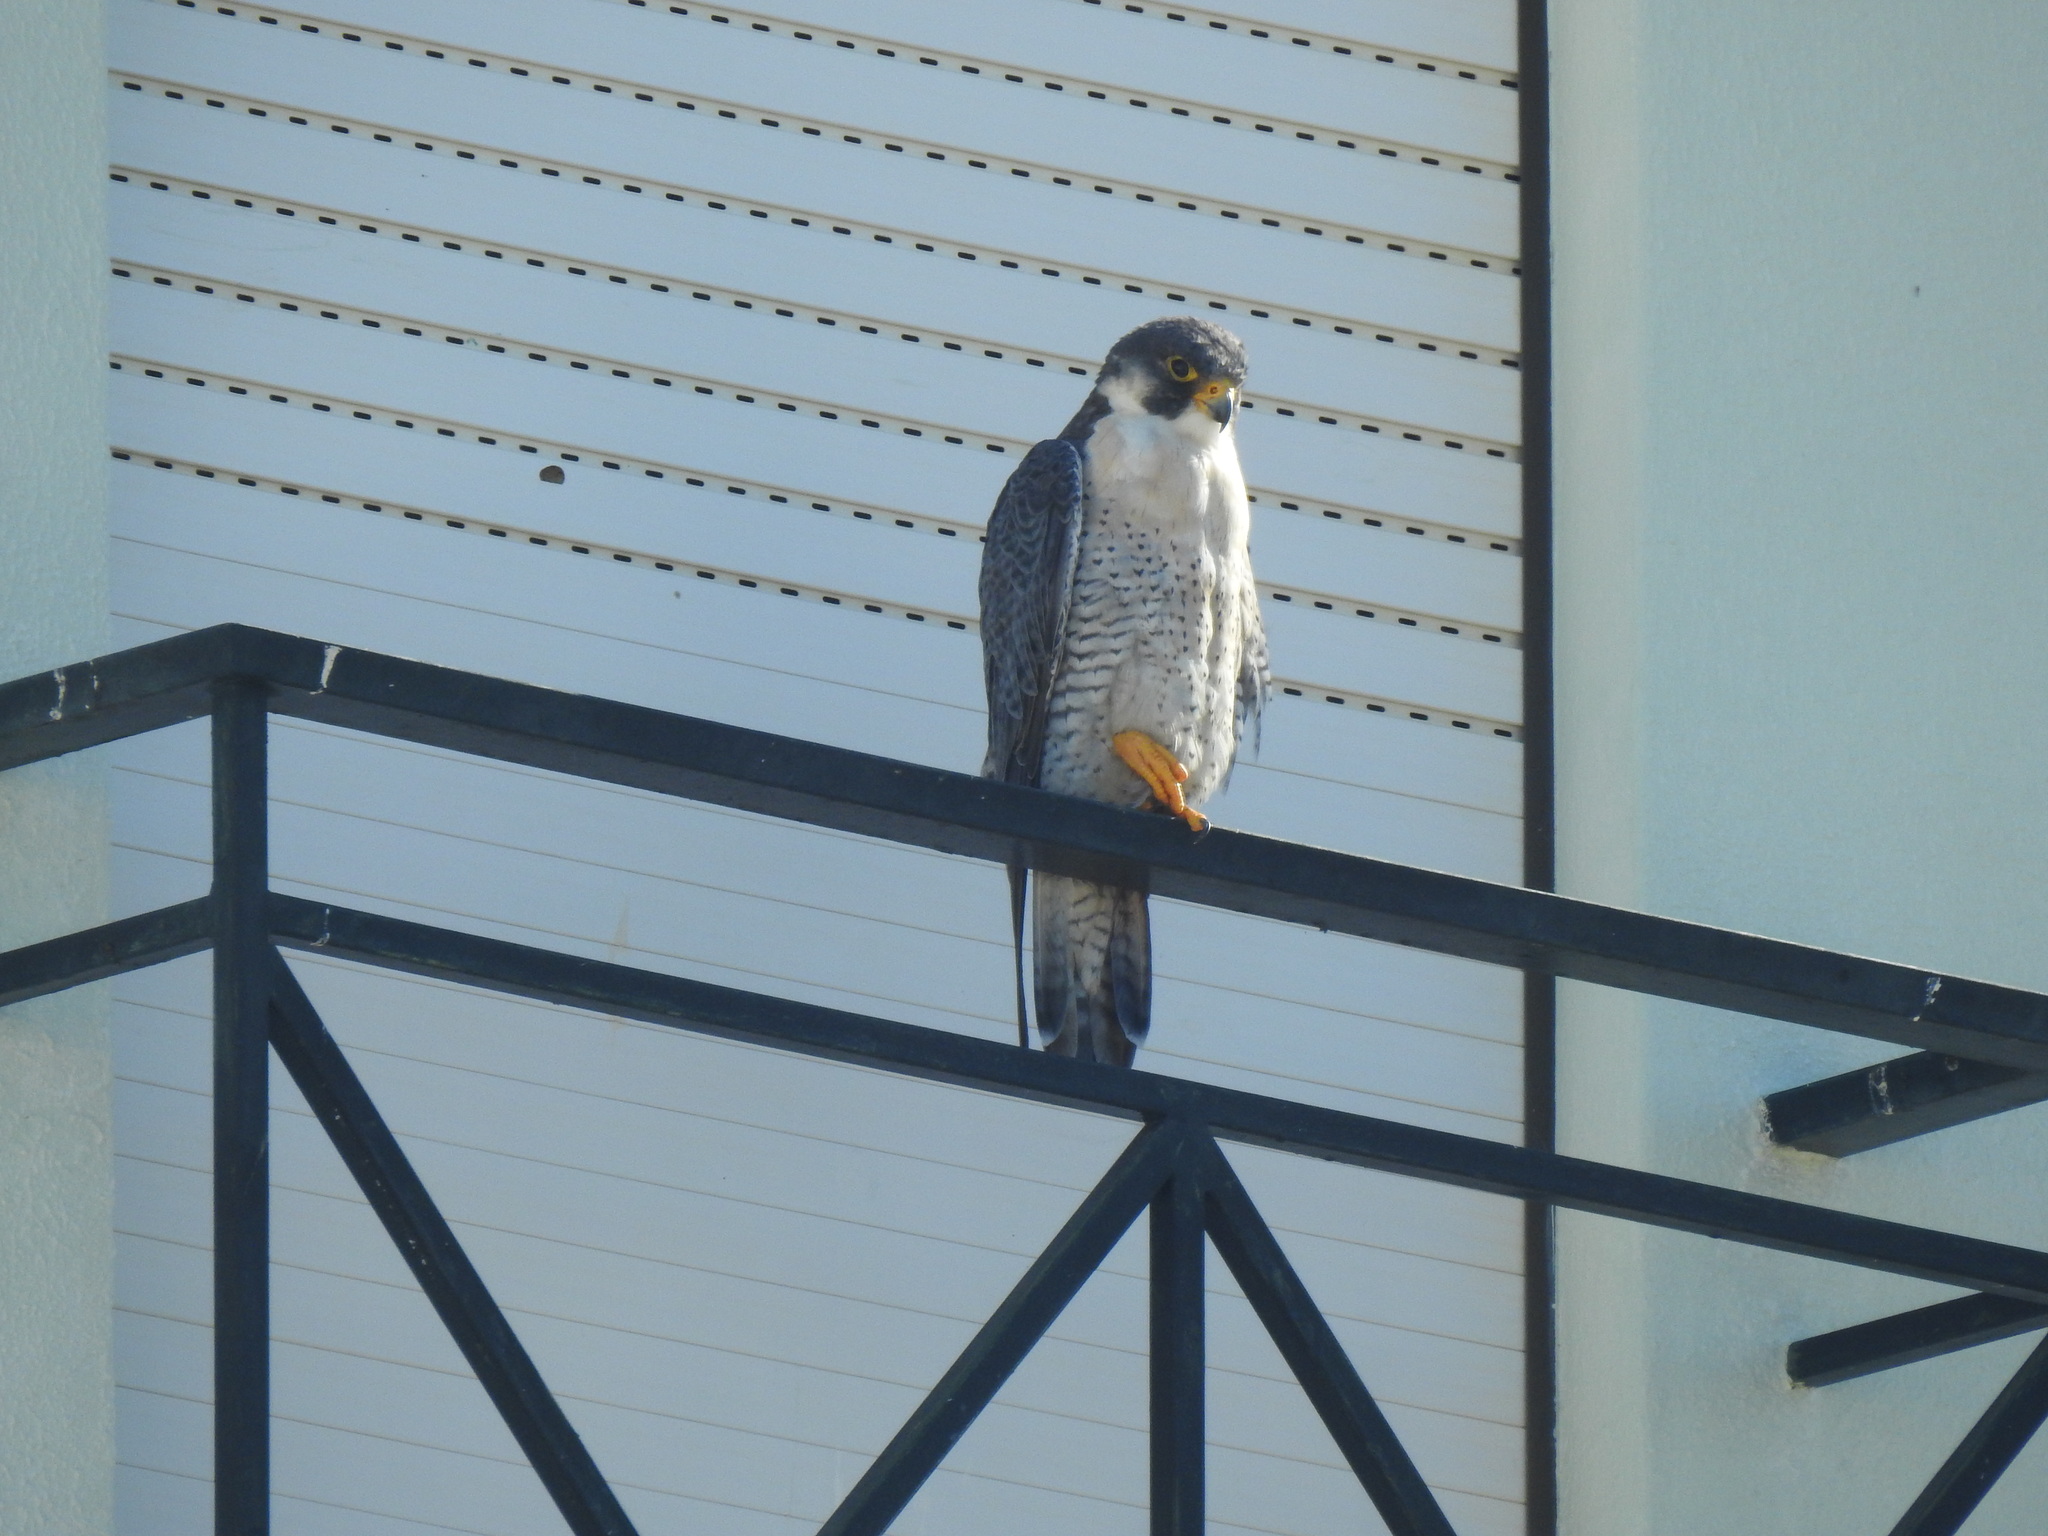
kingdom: Animalia
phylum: Chordata
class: Aves
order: Falconiformes
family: Falconidae
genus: Falco
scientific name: Falco peregrinus
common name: Peregrine falcon
